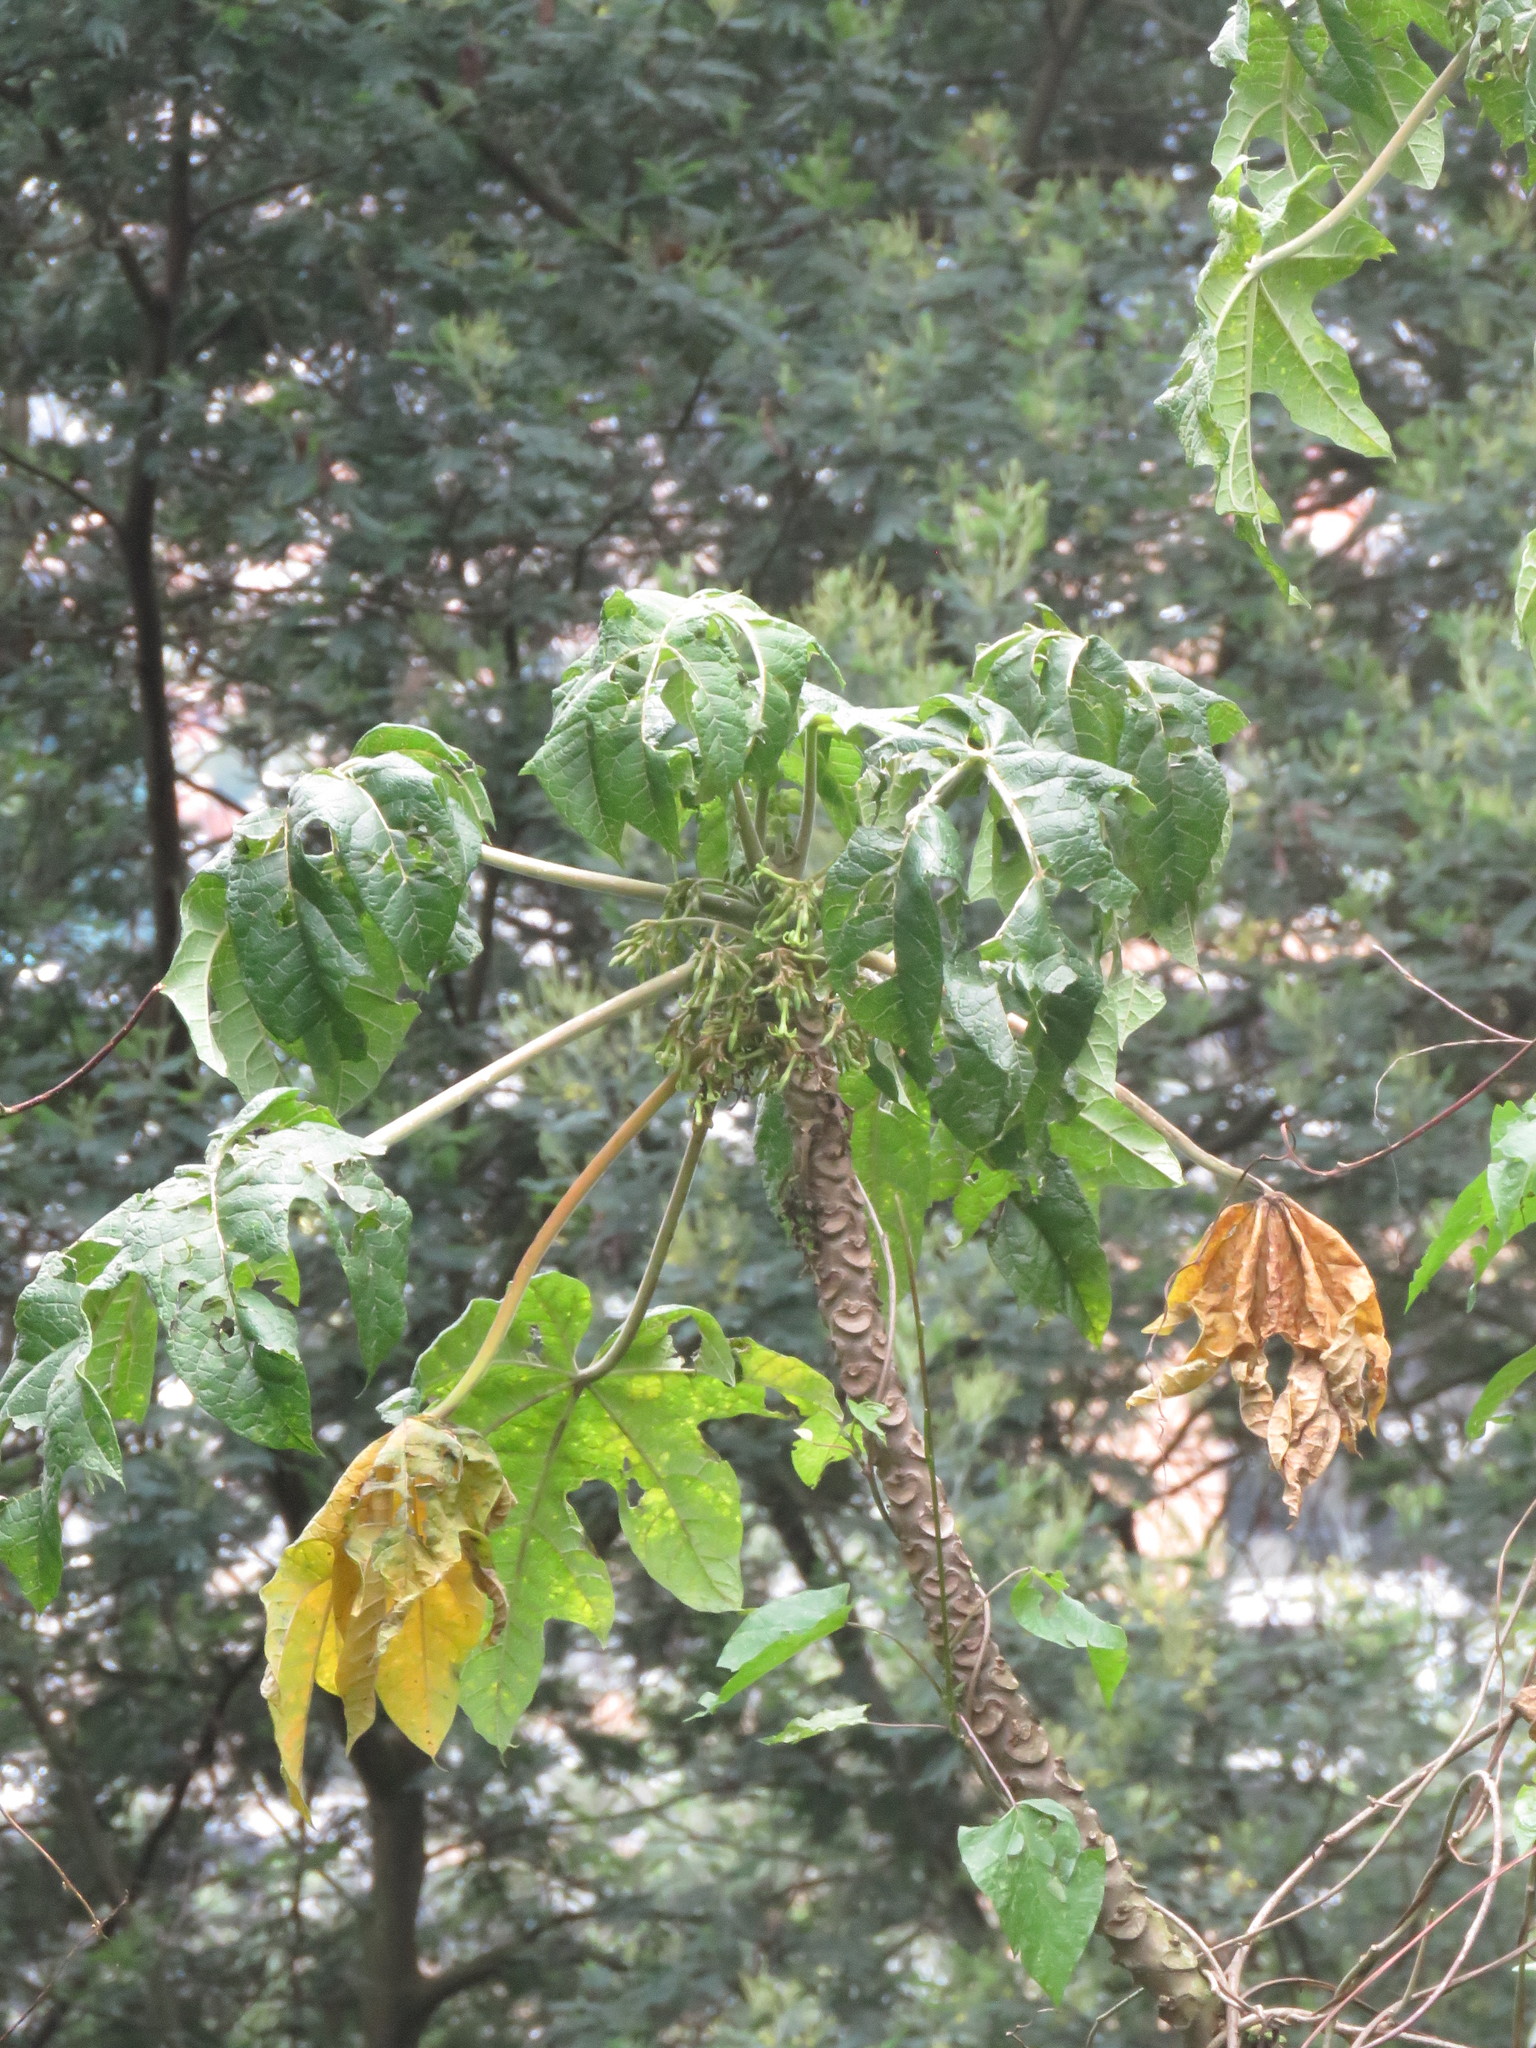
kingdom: Plantae
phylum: Tracheophyta
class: Magnoliopsida
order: Brassicales
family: Caricaceae
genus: Vasconcellea
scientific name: Vasconcellea pubescens
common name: Mountain papaya
